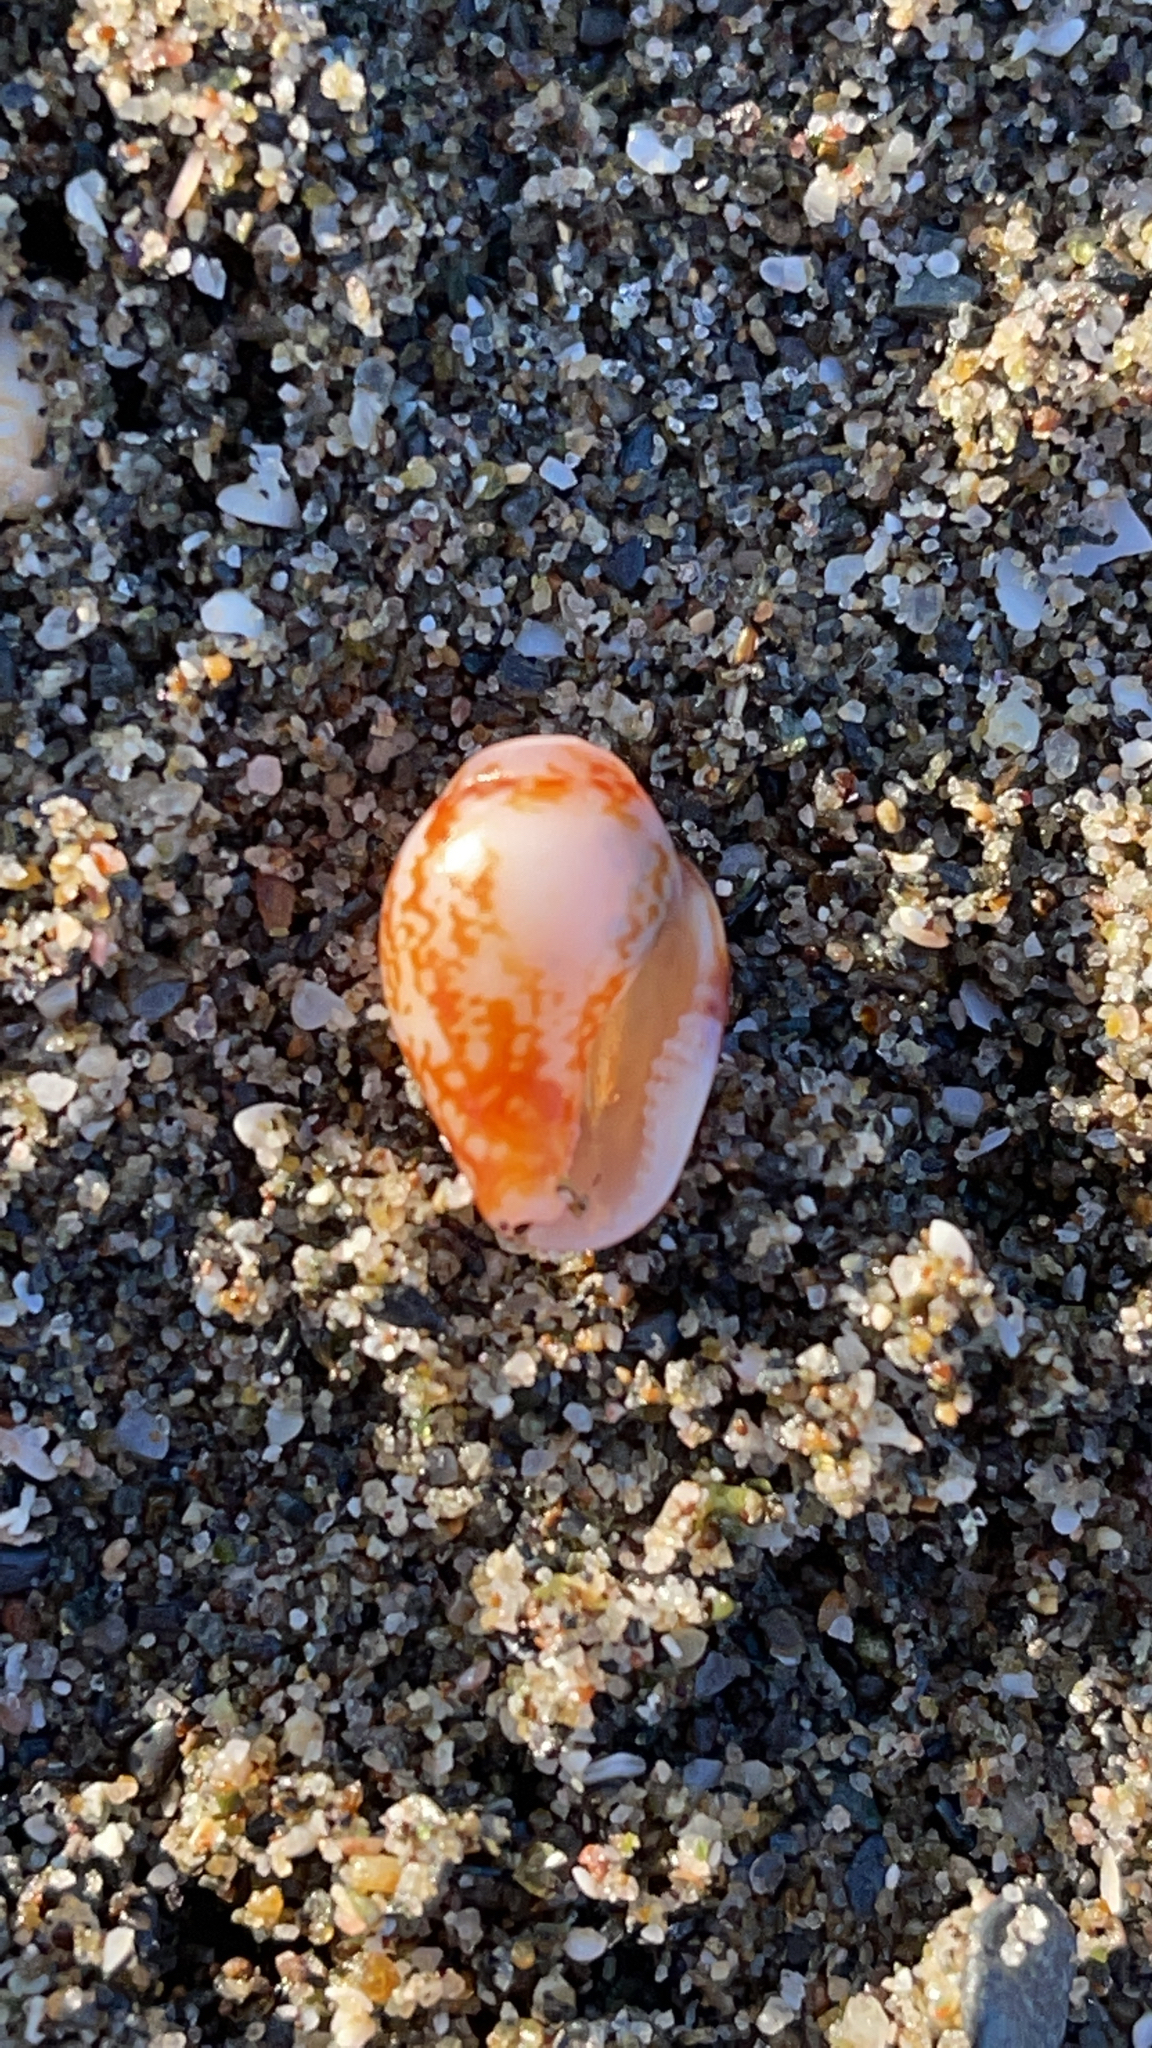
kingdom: Animalia
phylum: Mollusca
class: Gastropoda
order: Neogastropoda
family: Columbellidae
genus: Columbella
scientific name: Columbella rustica
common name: Rustic dove shell
